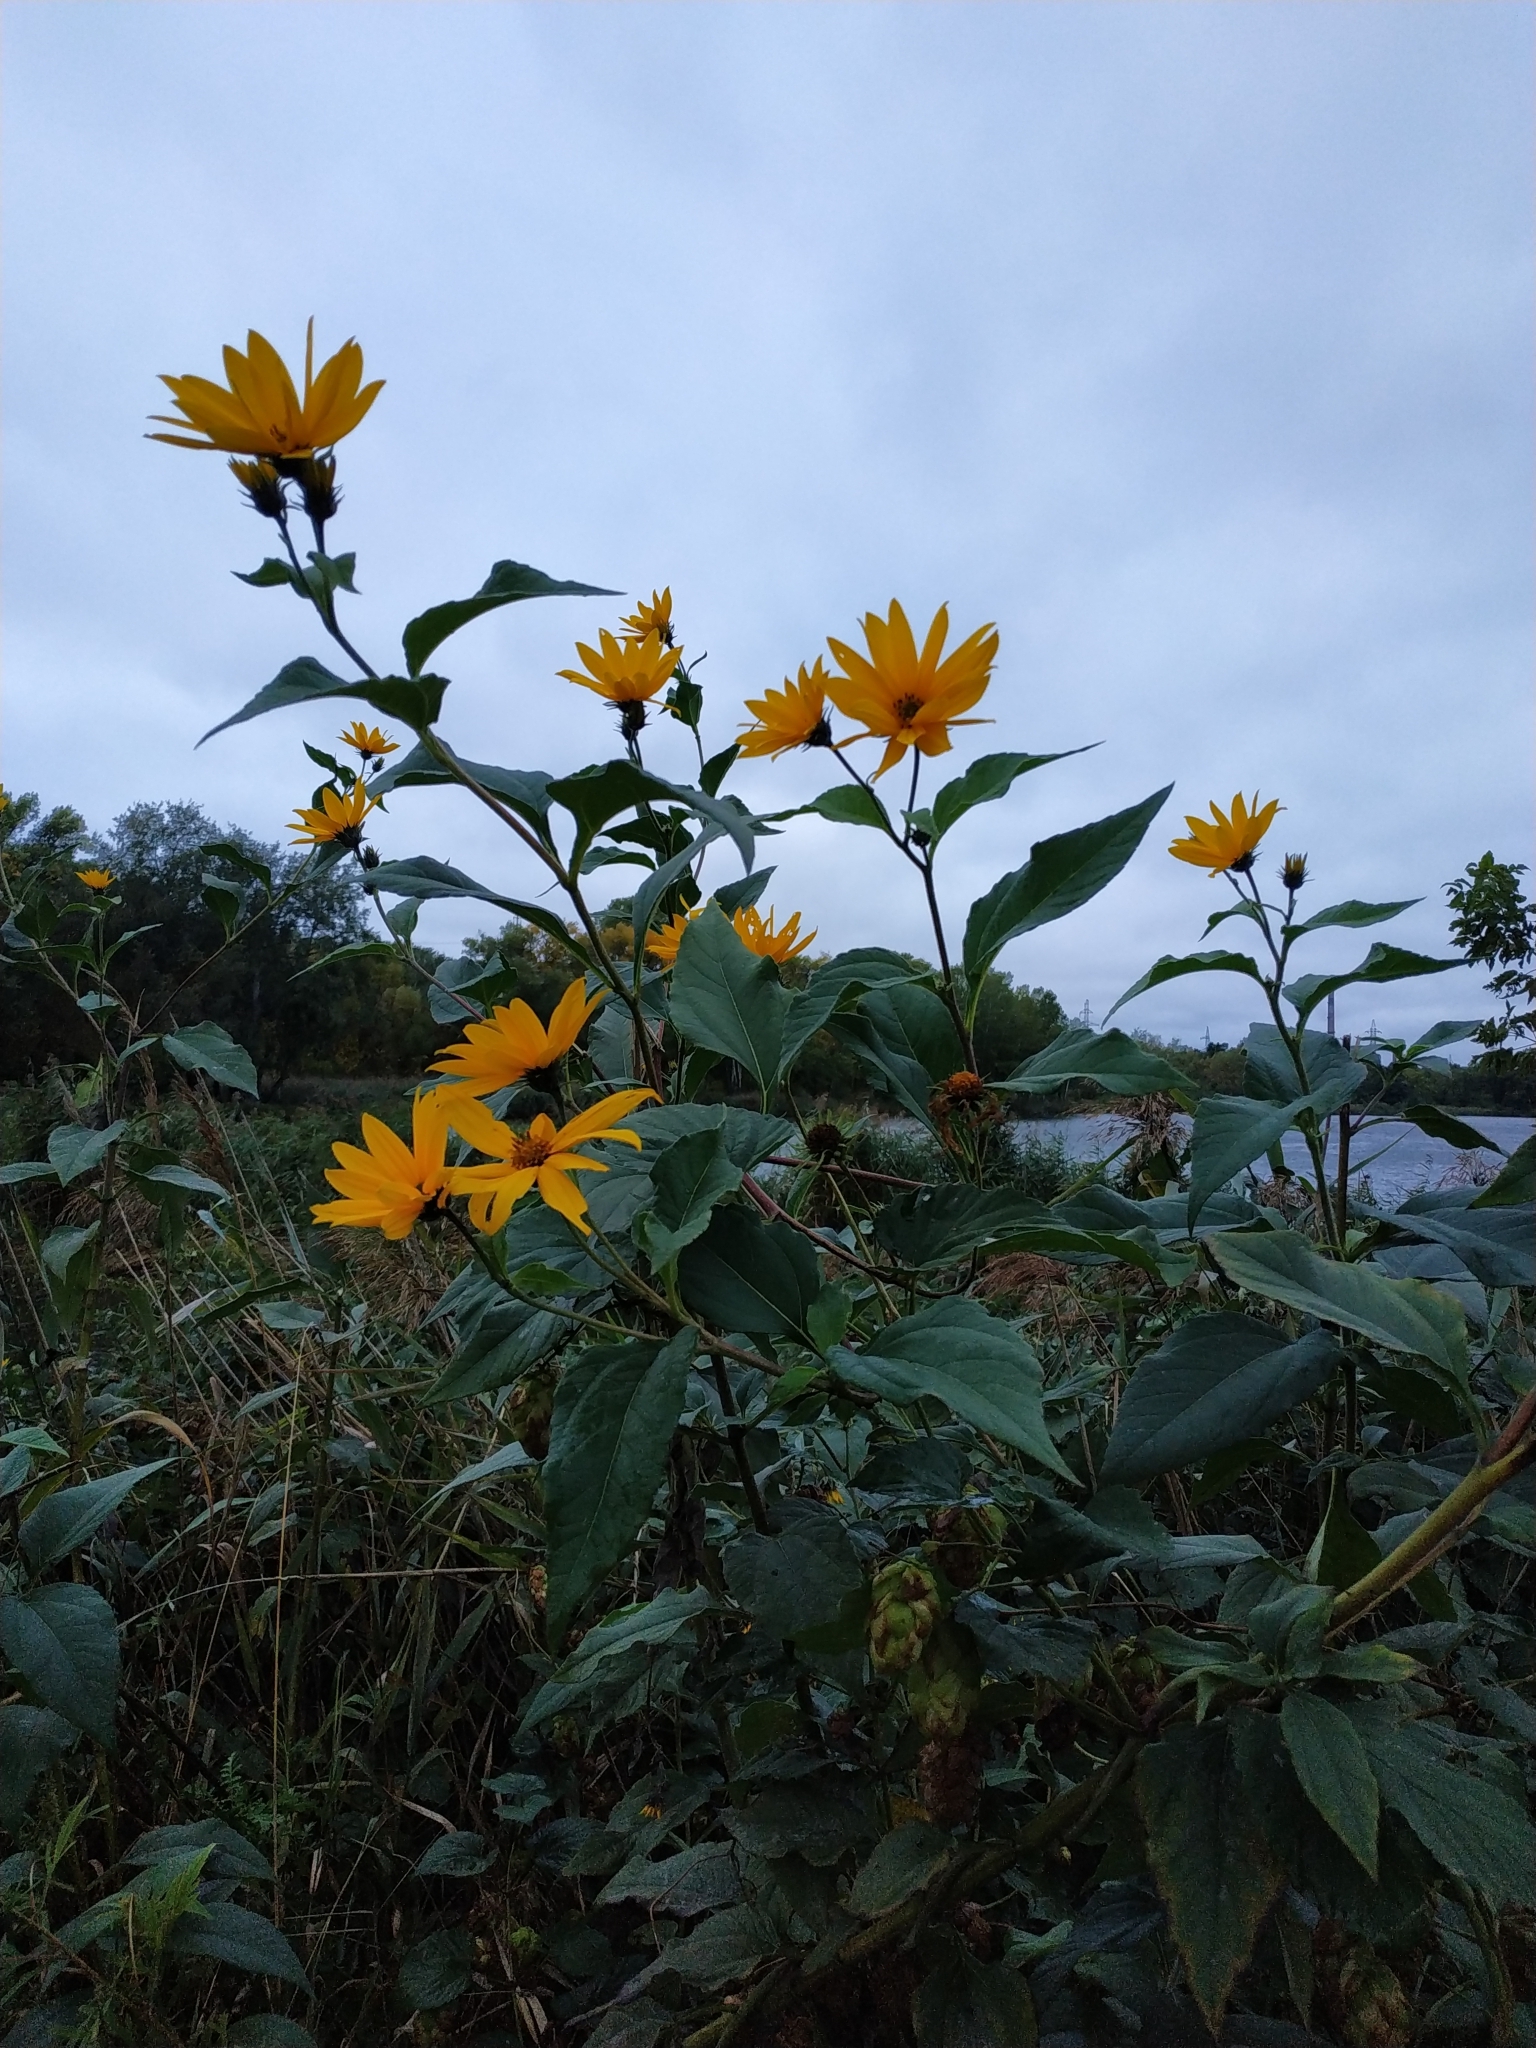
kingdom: Plantae
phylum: Tracheophyta
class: Magnoliopsida
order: Asterales
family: Asteraceae
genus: Helianthus
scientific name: Helianthus tuberosus
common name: Jerusalem artichoke
